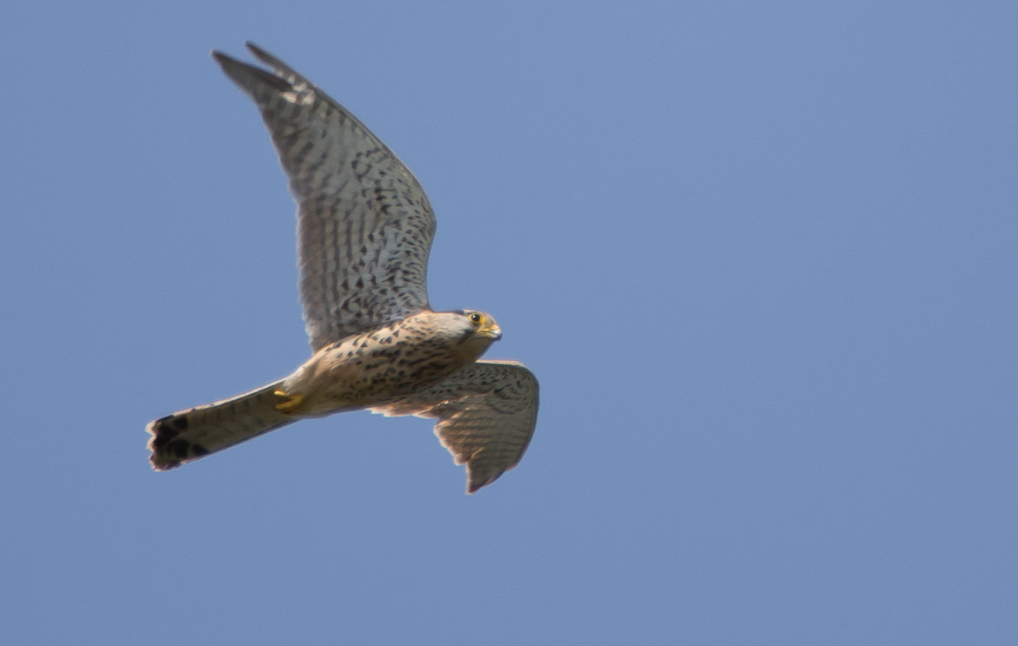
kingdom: Animalia
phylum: Chordata
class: Aves
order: Falconiformes
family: Falconidae
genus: Falco
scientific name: Falco tinnunculus
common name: Common kestrel
